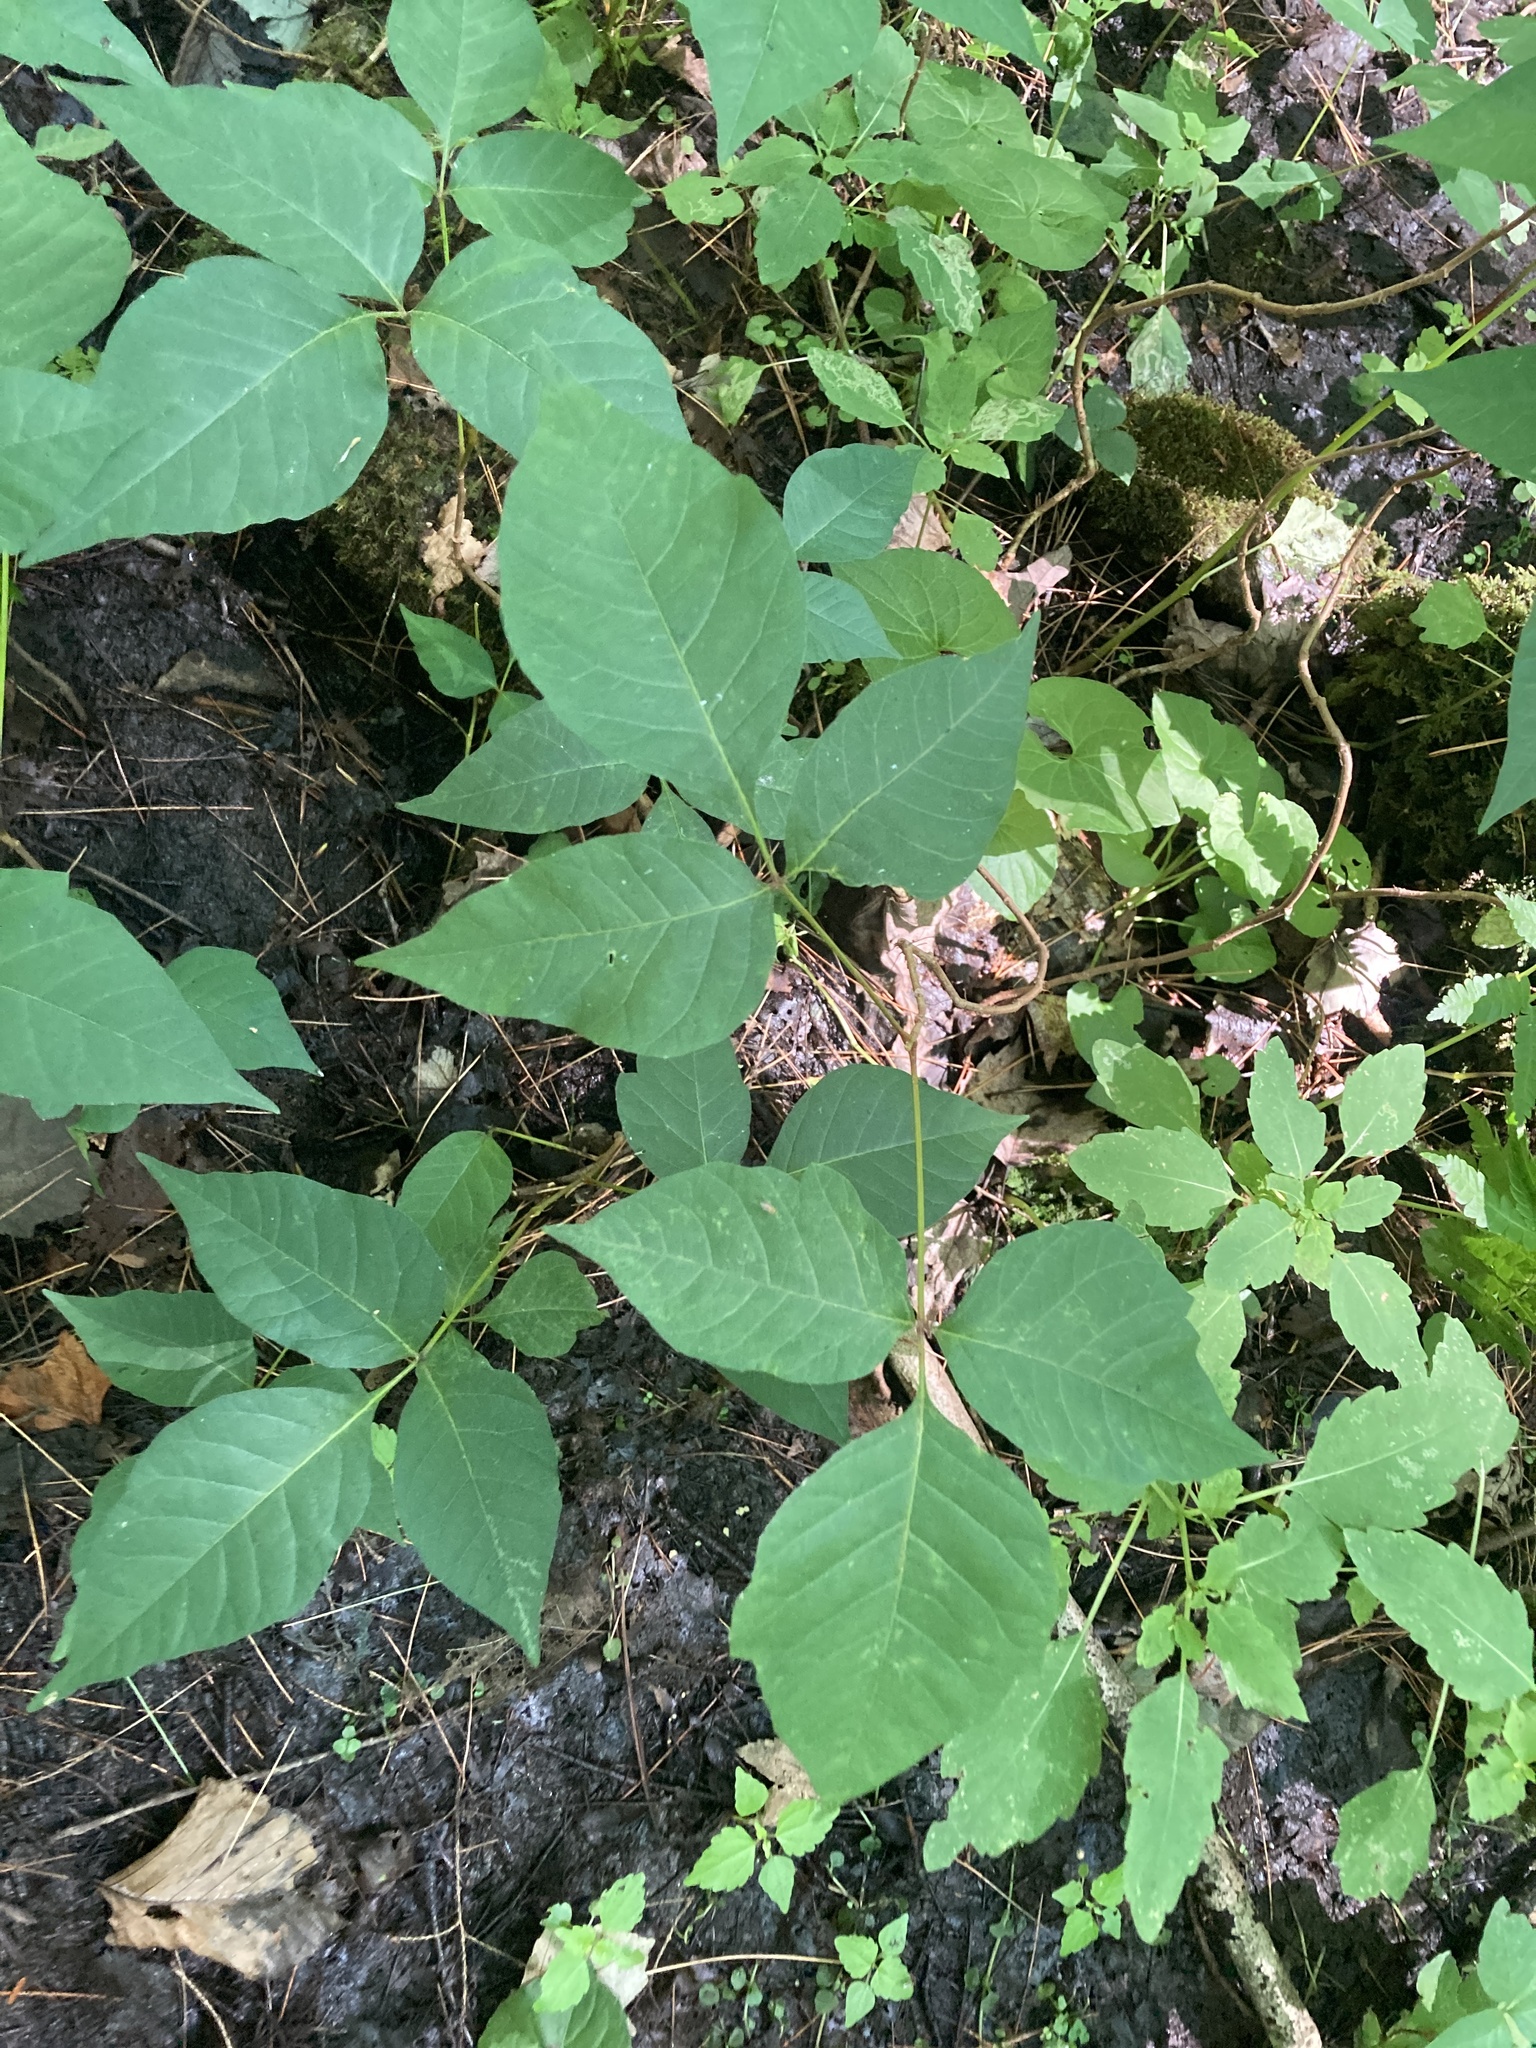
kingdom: Plantae
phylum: Tracheophyta
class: Magnoliopsida
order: Sapindales
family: Anacardiaceae
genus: Toxicodendron
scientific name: Toxicodendron rydbergii
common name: Rydberg's poison-ivy
